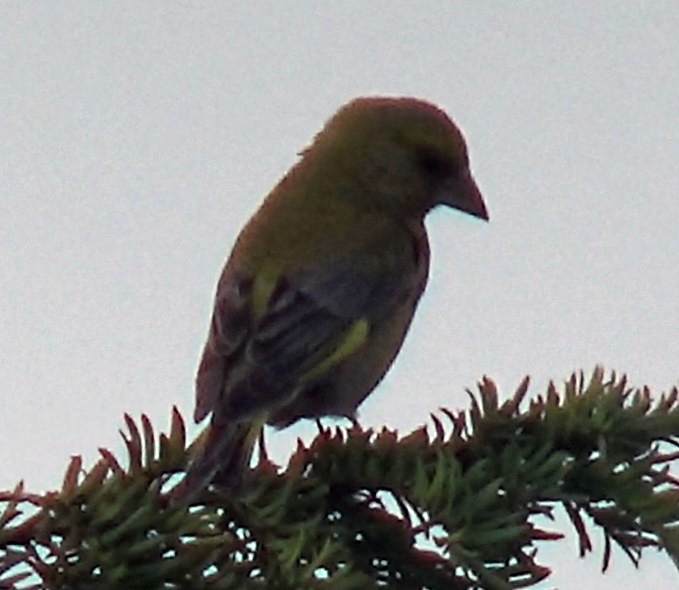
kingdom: Plantae
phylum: Tracheophyta
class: Liliopsida
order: Poales
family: Poaceae
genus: Chloris
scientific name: Chloris chloris
